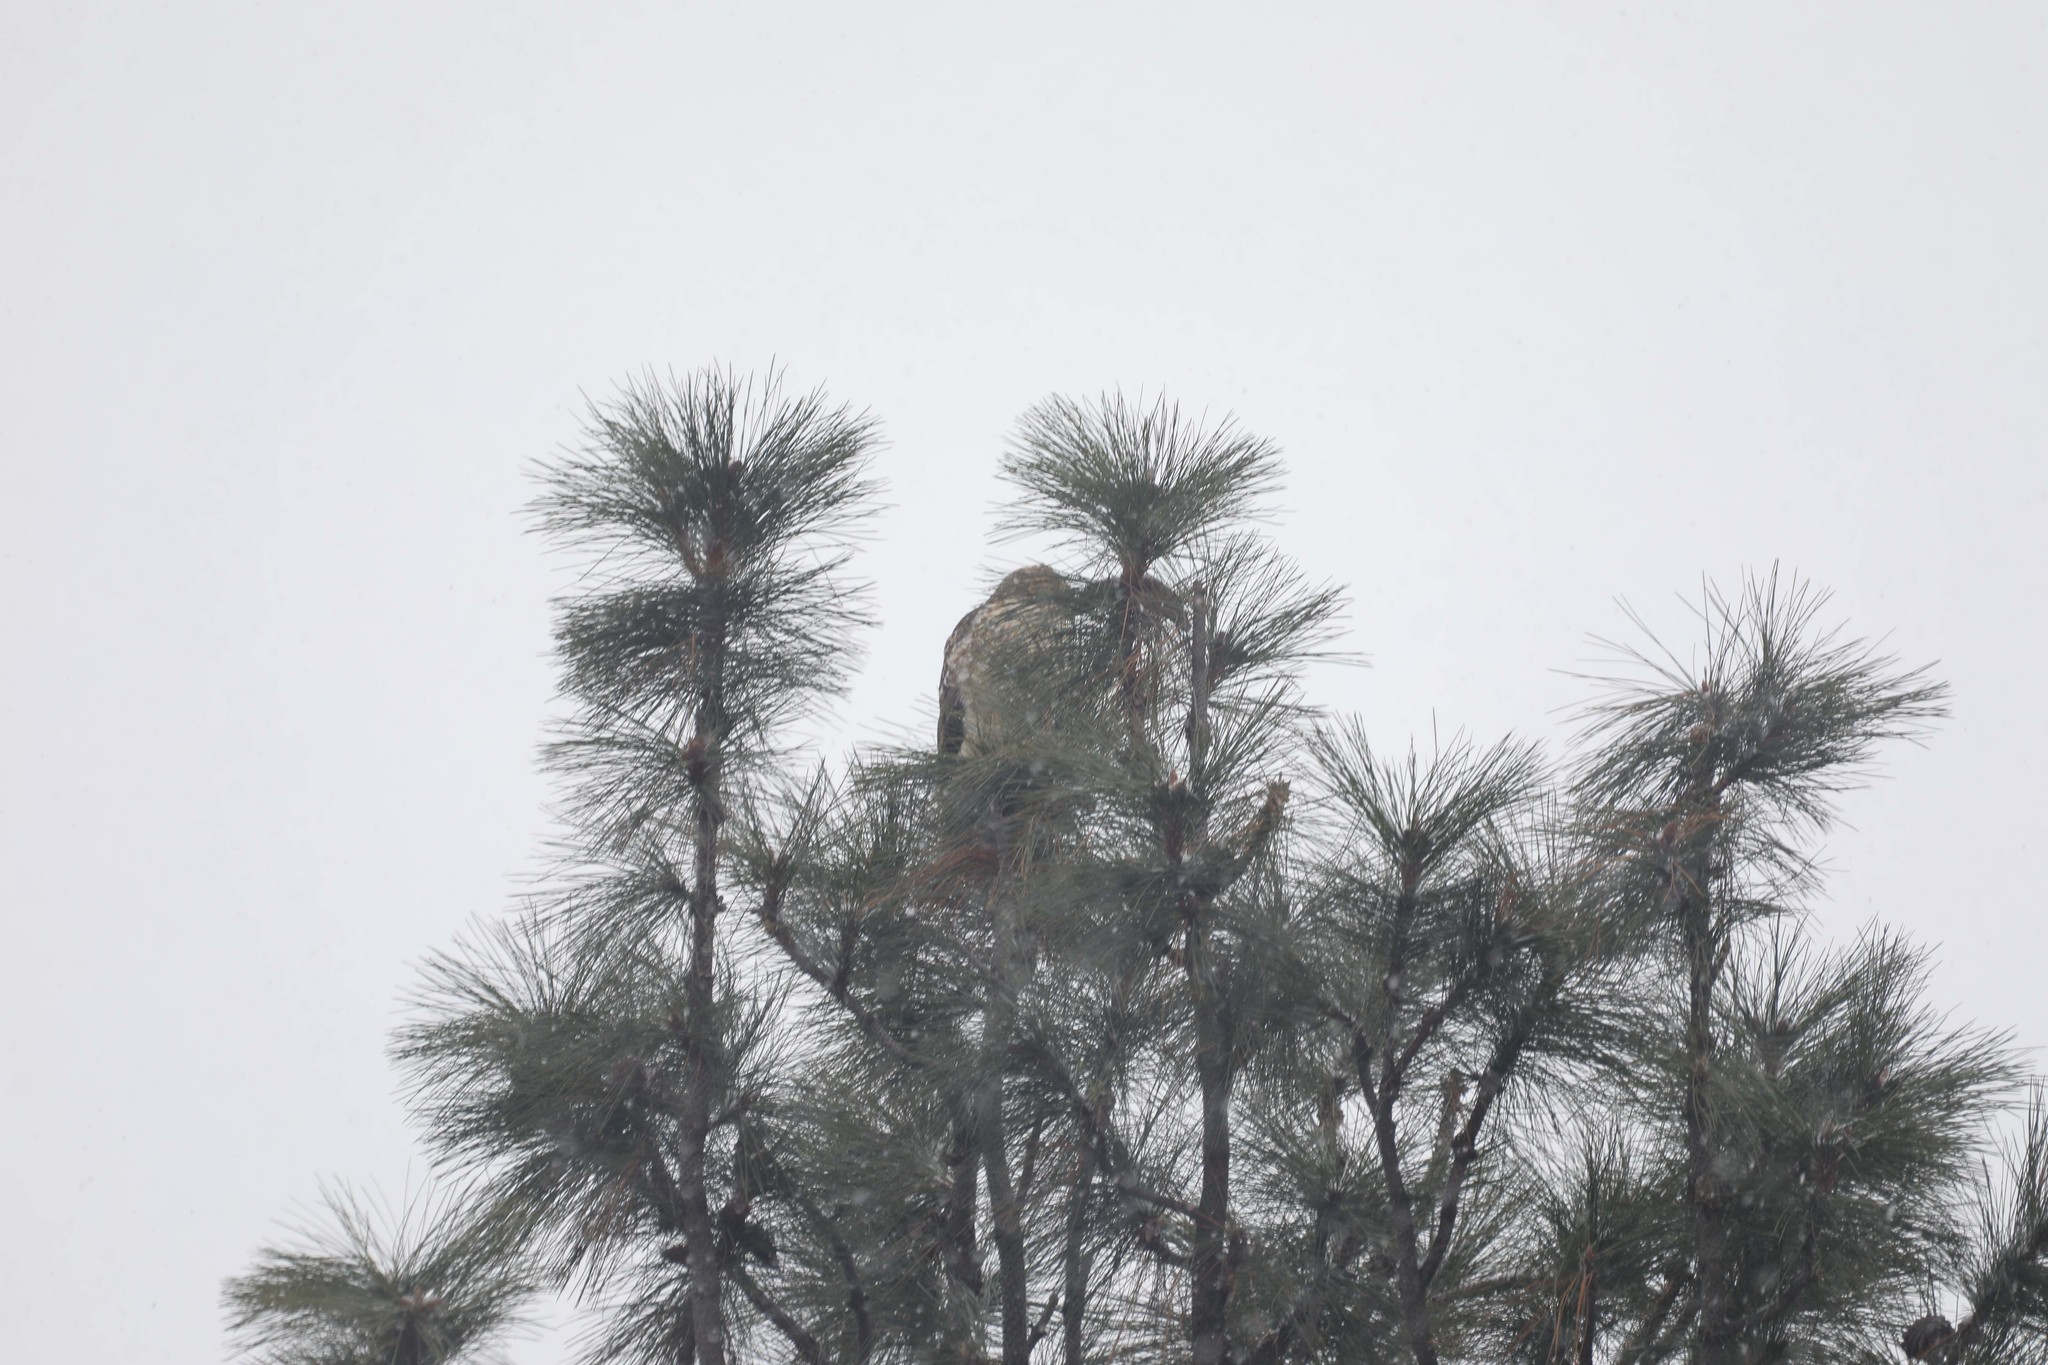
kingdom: Animalia
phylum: Chordata
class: Aves
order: Accipitriformes
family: Accipitridae
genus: Buteo
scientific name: Buteo jamaicensis
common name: Red-tailed hawk
